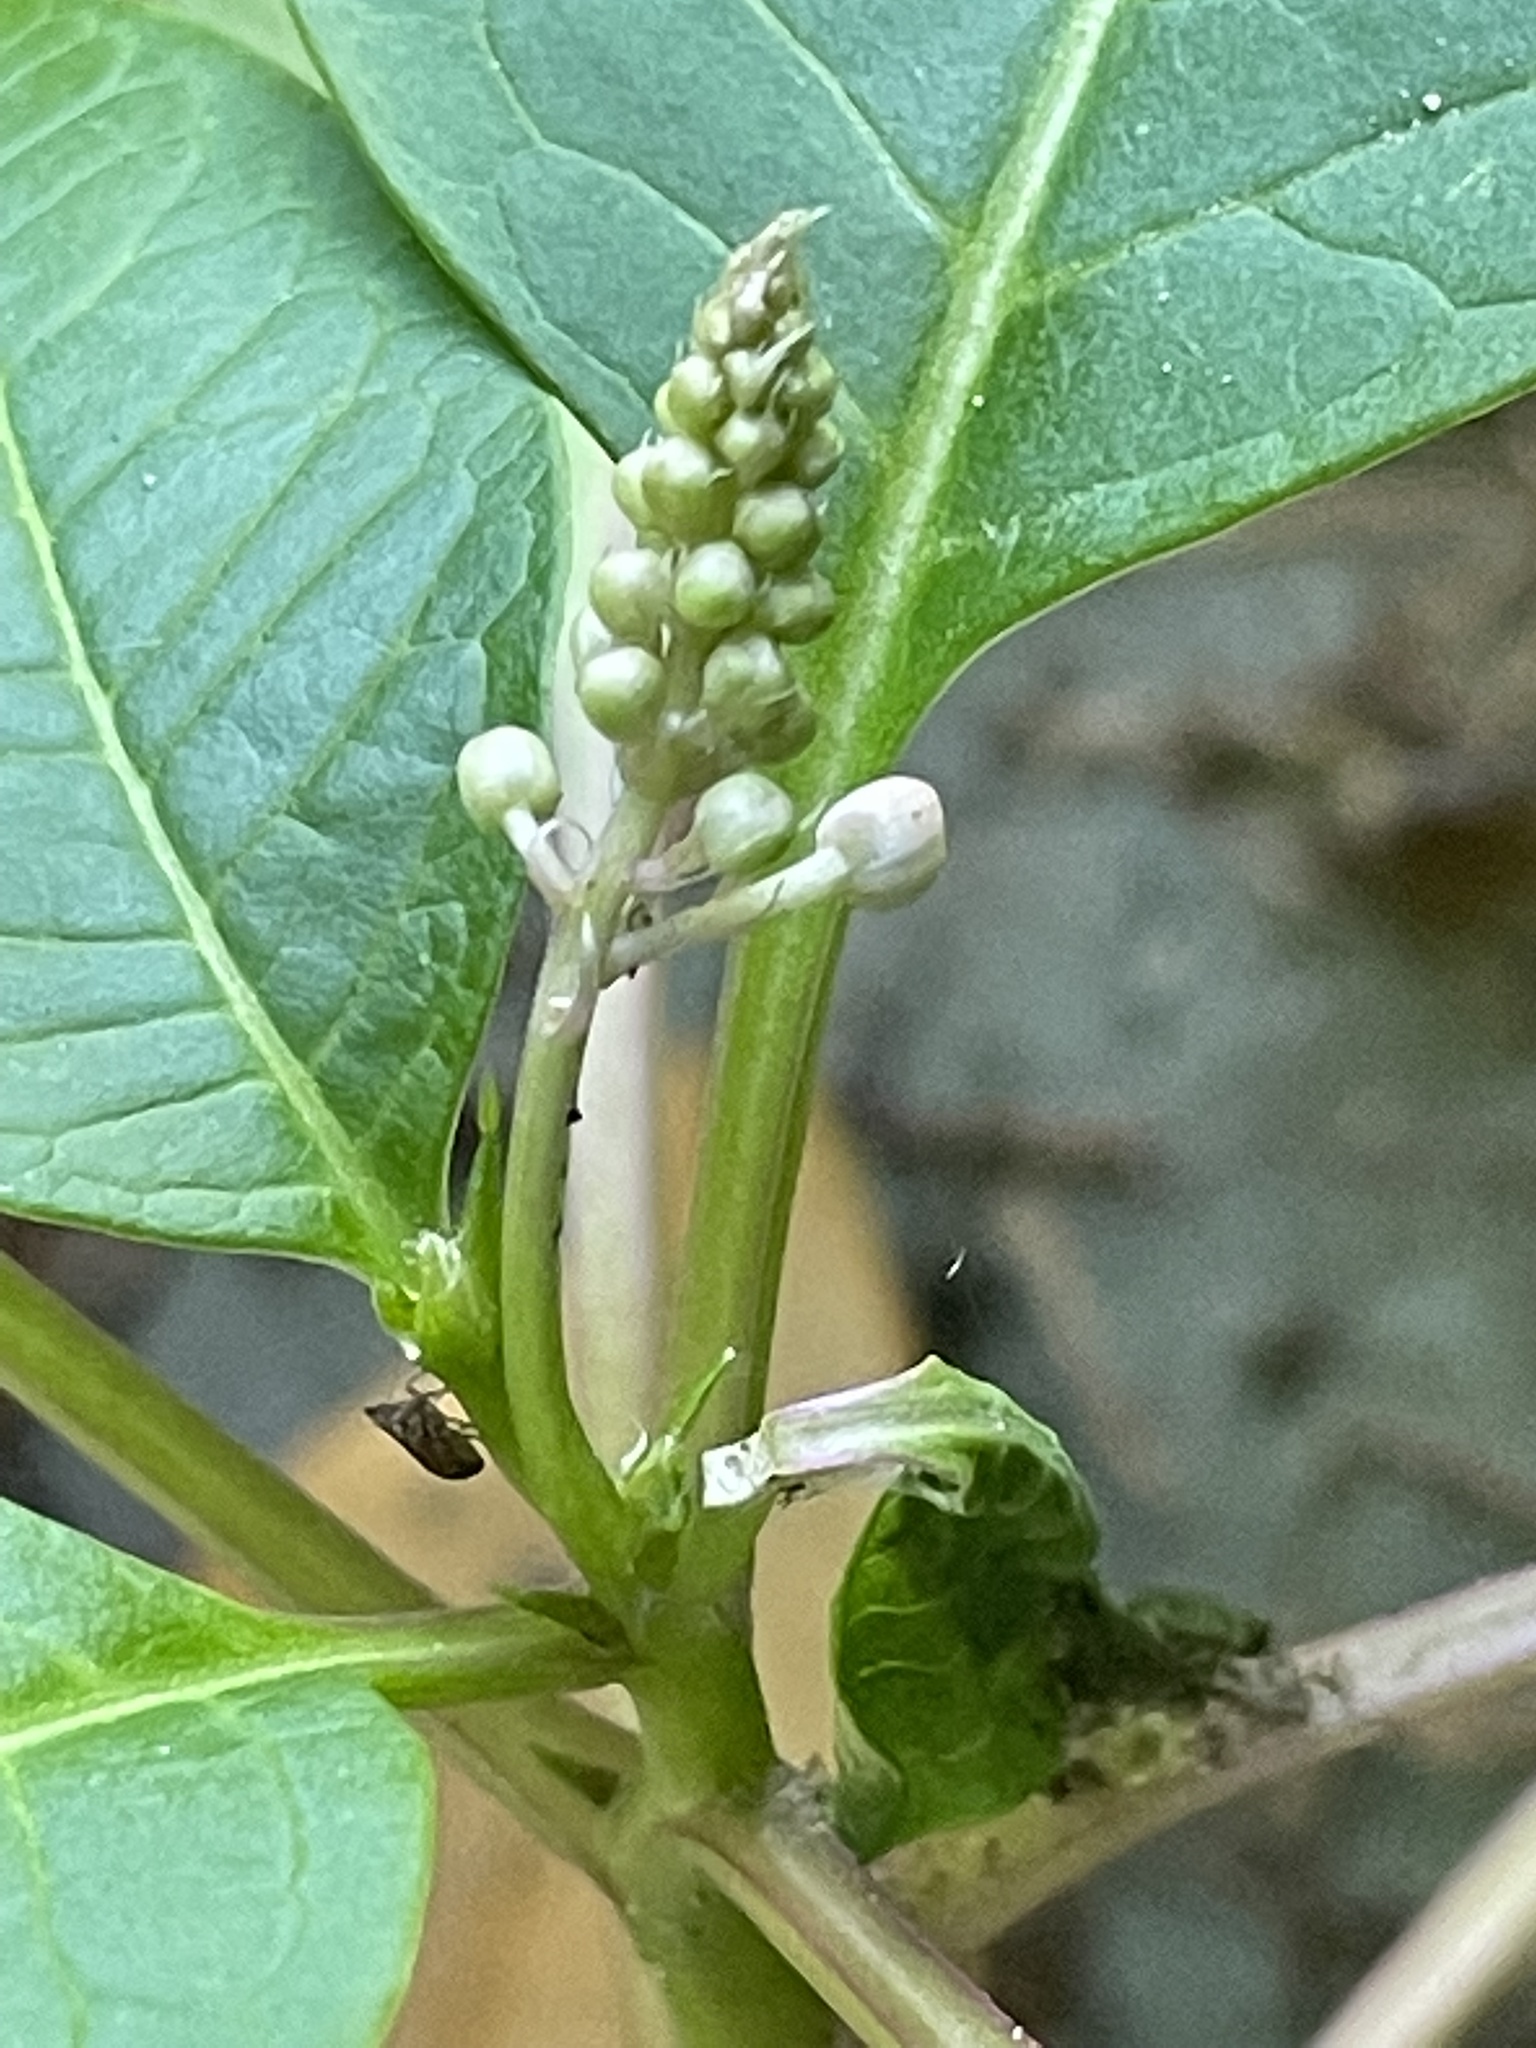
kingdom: Plantae
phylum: Tracheophyta
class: Magnoliopsida
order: Caryophyllales
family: Phytolaccaceae
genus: Phytolacca
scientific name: Phytolacca americana
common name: American pokeweed
